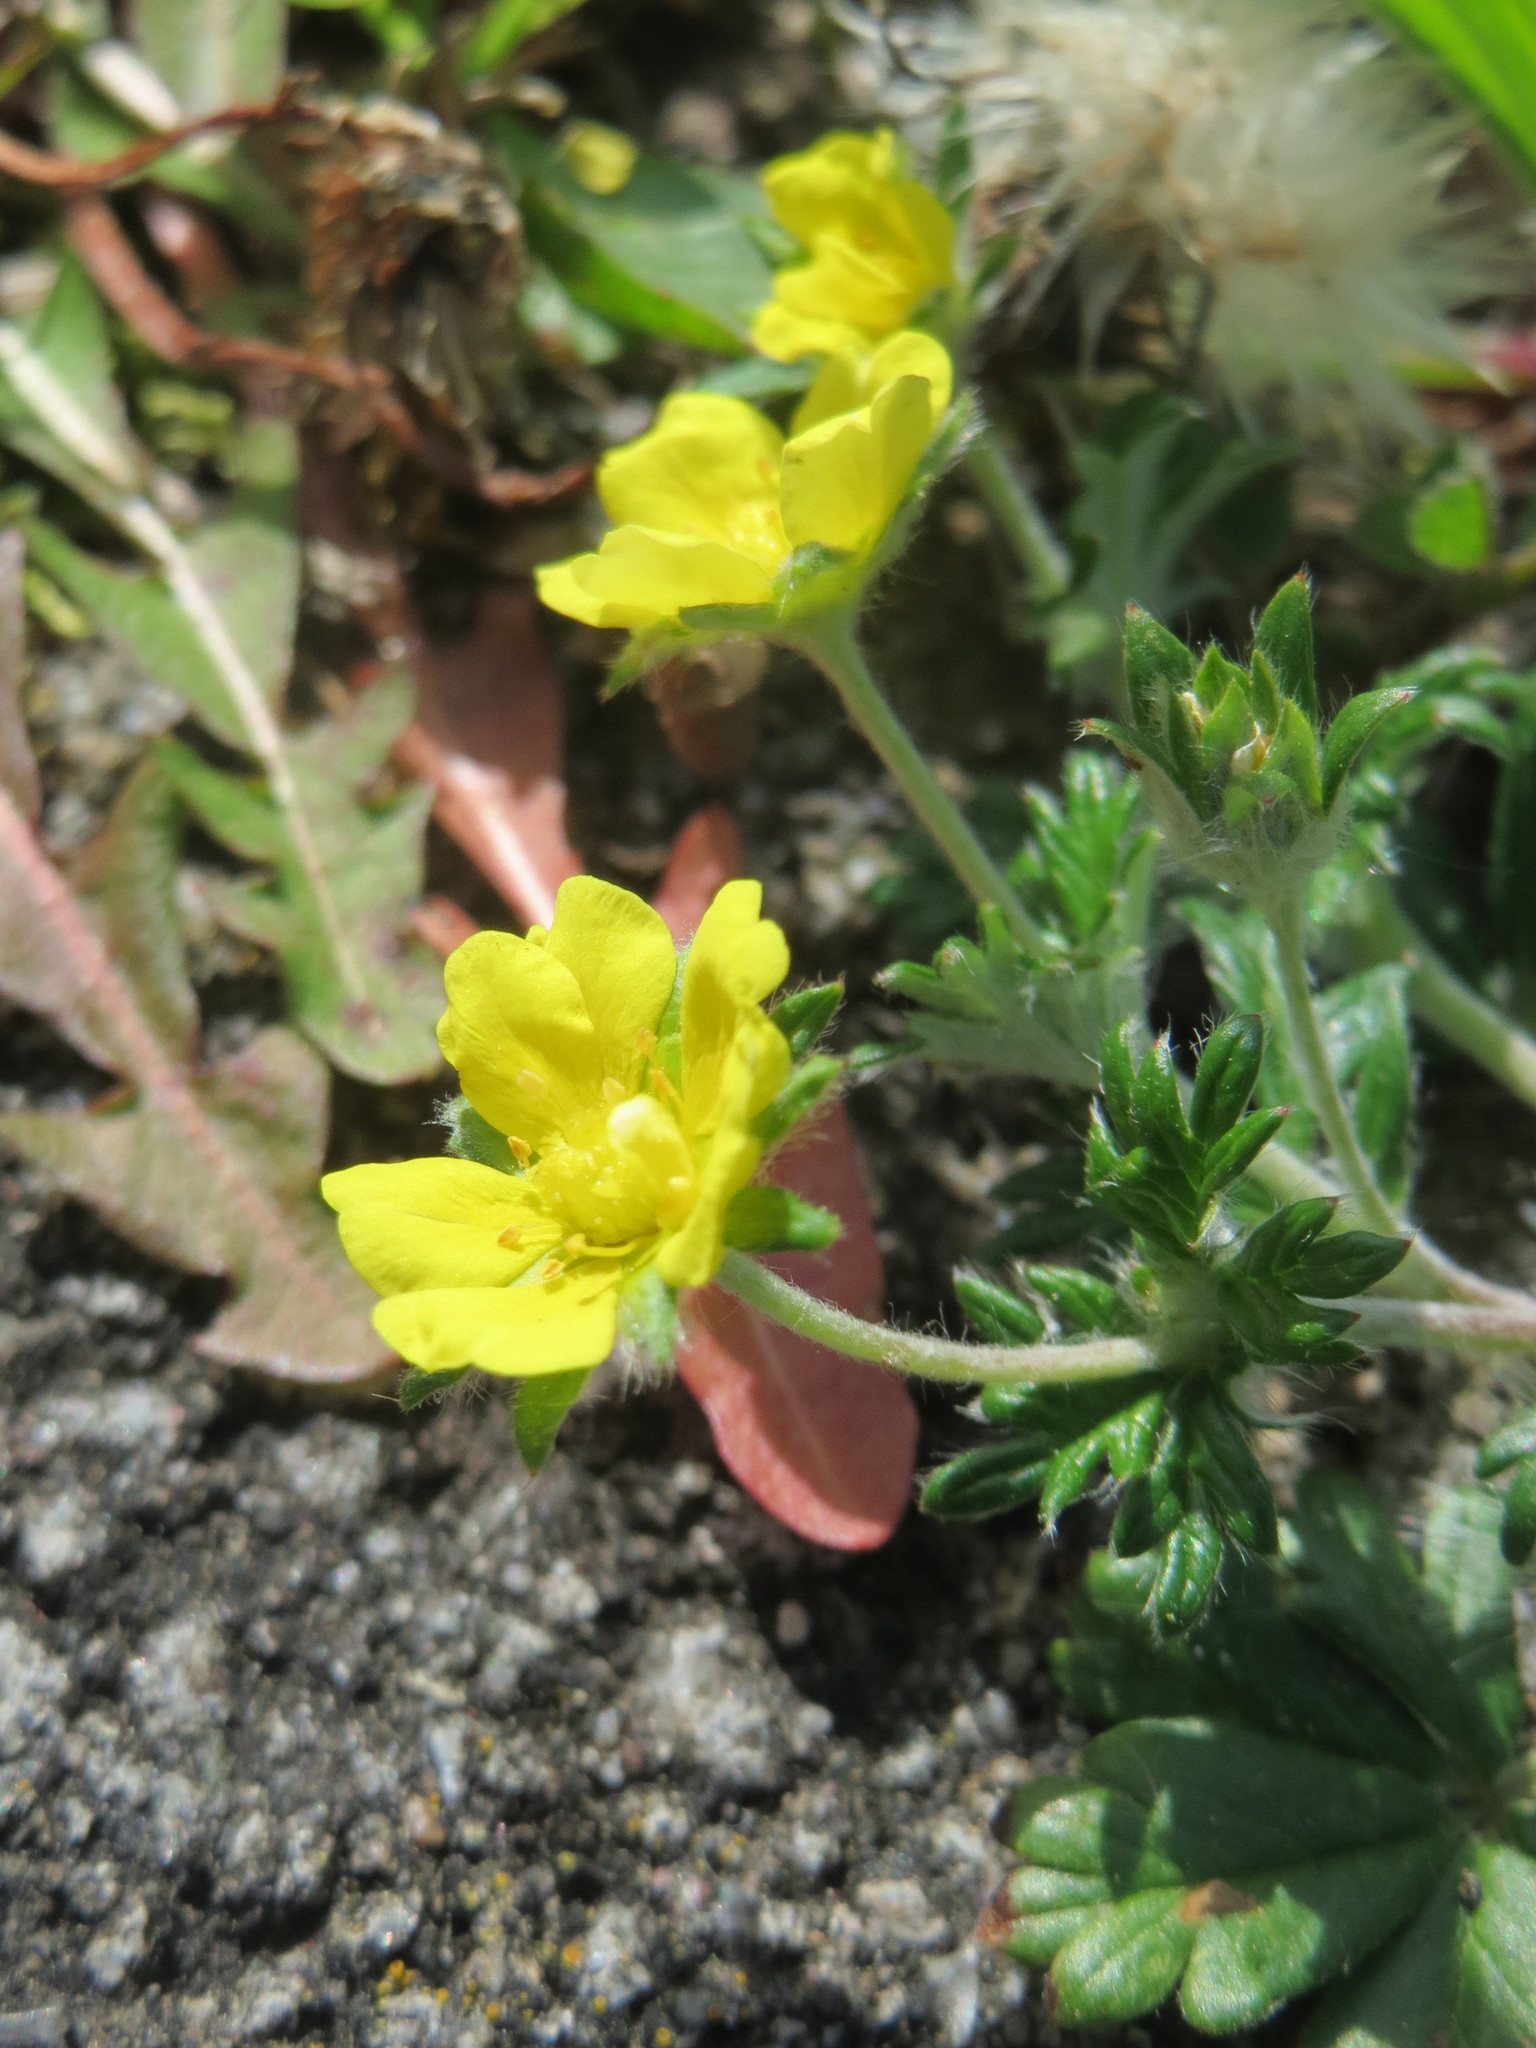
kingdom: Plantae
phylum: Tracheophyta
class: Magnoliopsida
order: Rosales
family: Rosaceae
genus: Potentilla
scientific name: Potentilla argentea
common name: Hoary cinquefoil
